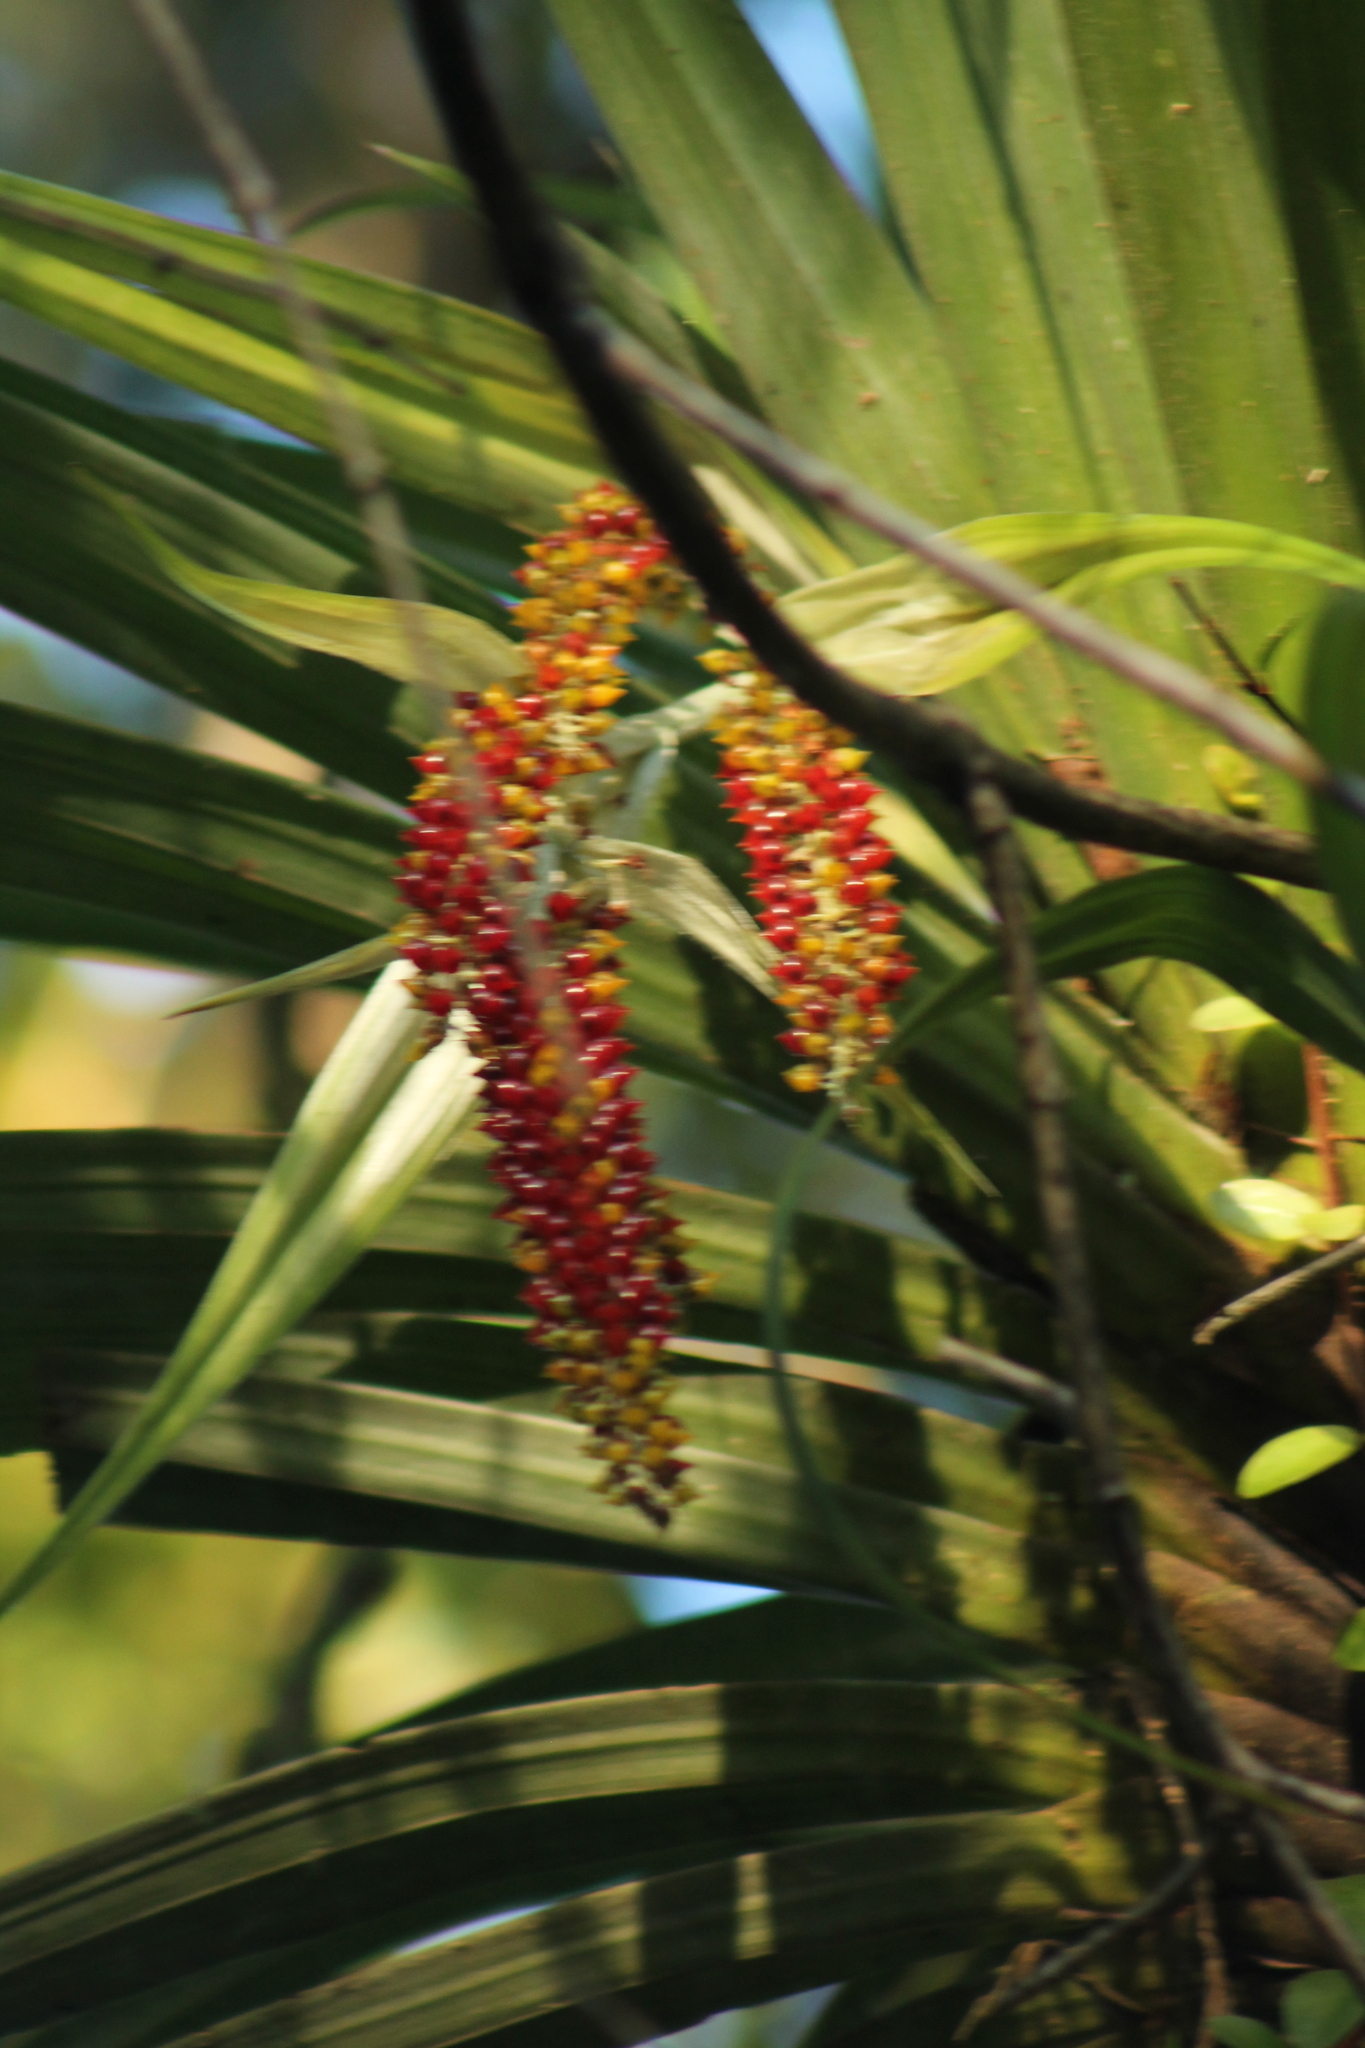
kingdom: Plantae
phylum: Tracheophyta
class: Liliopsida
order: Asparagales
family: Asteliaceae
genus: Astelia
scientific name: Astelia hastata
